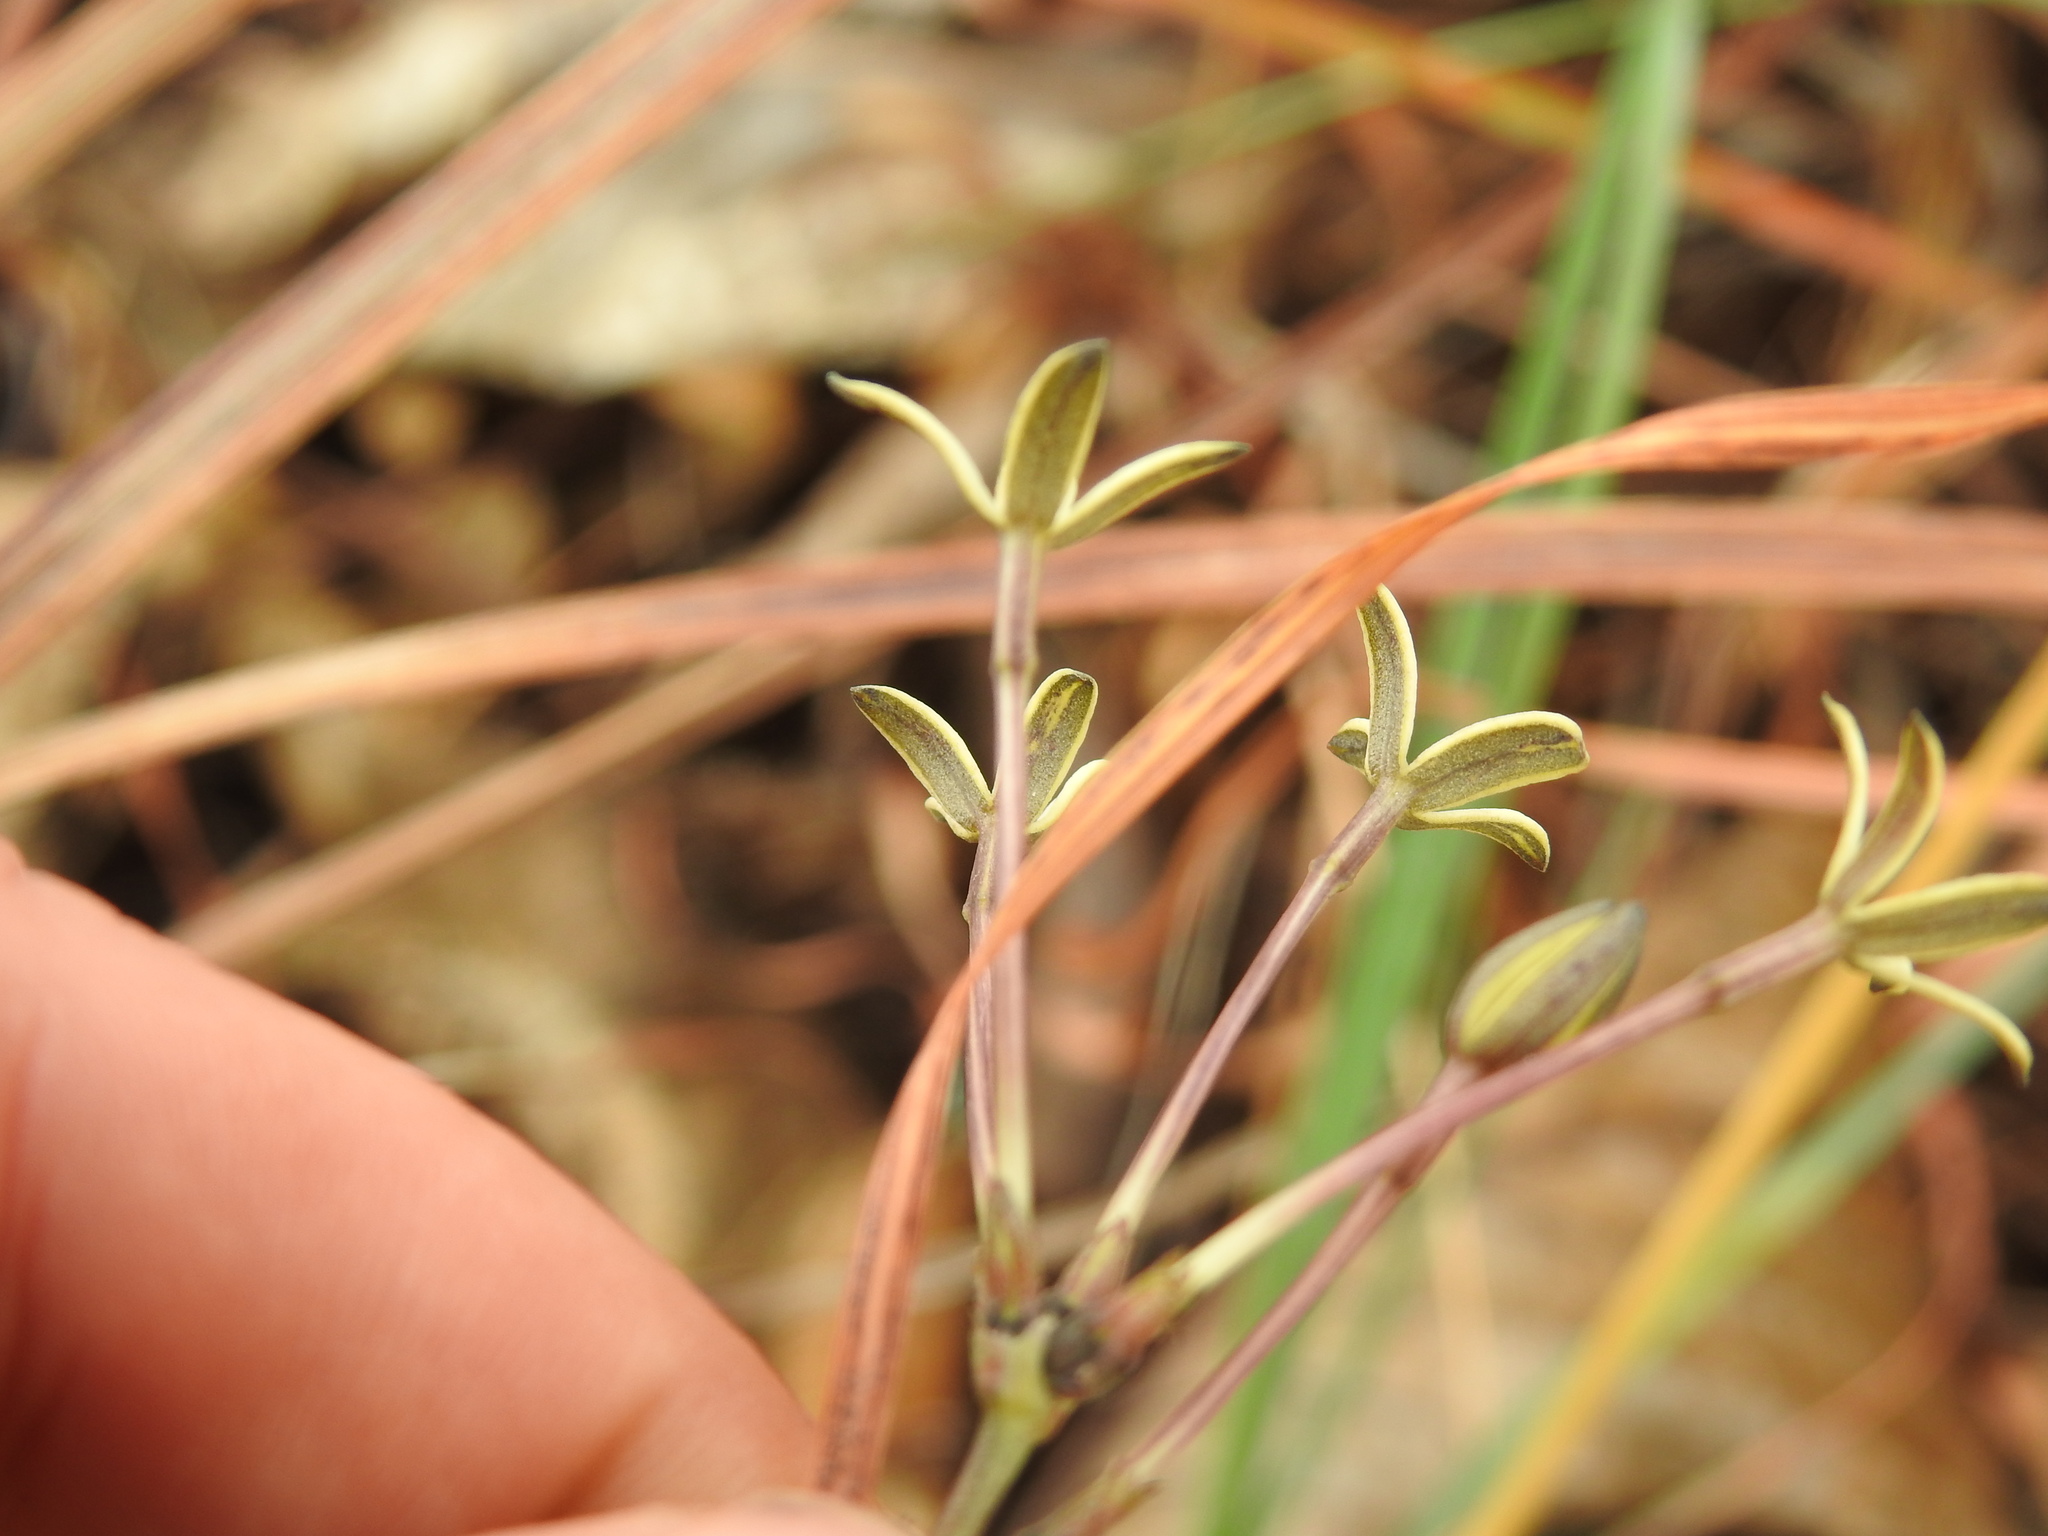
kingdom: Plantae
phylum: Tracheophyta
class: Magnoliopsida
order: Gentianales
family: Rubiaceae
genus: Kohautia
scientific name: Kohautia amatymbica
